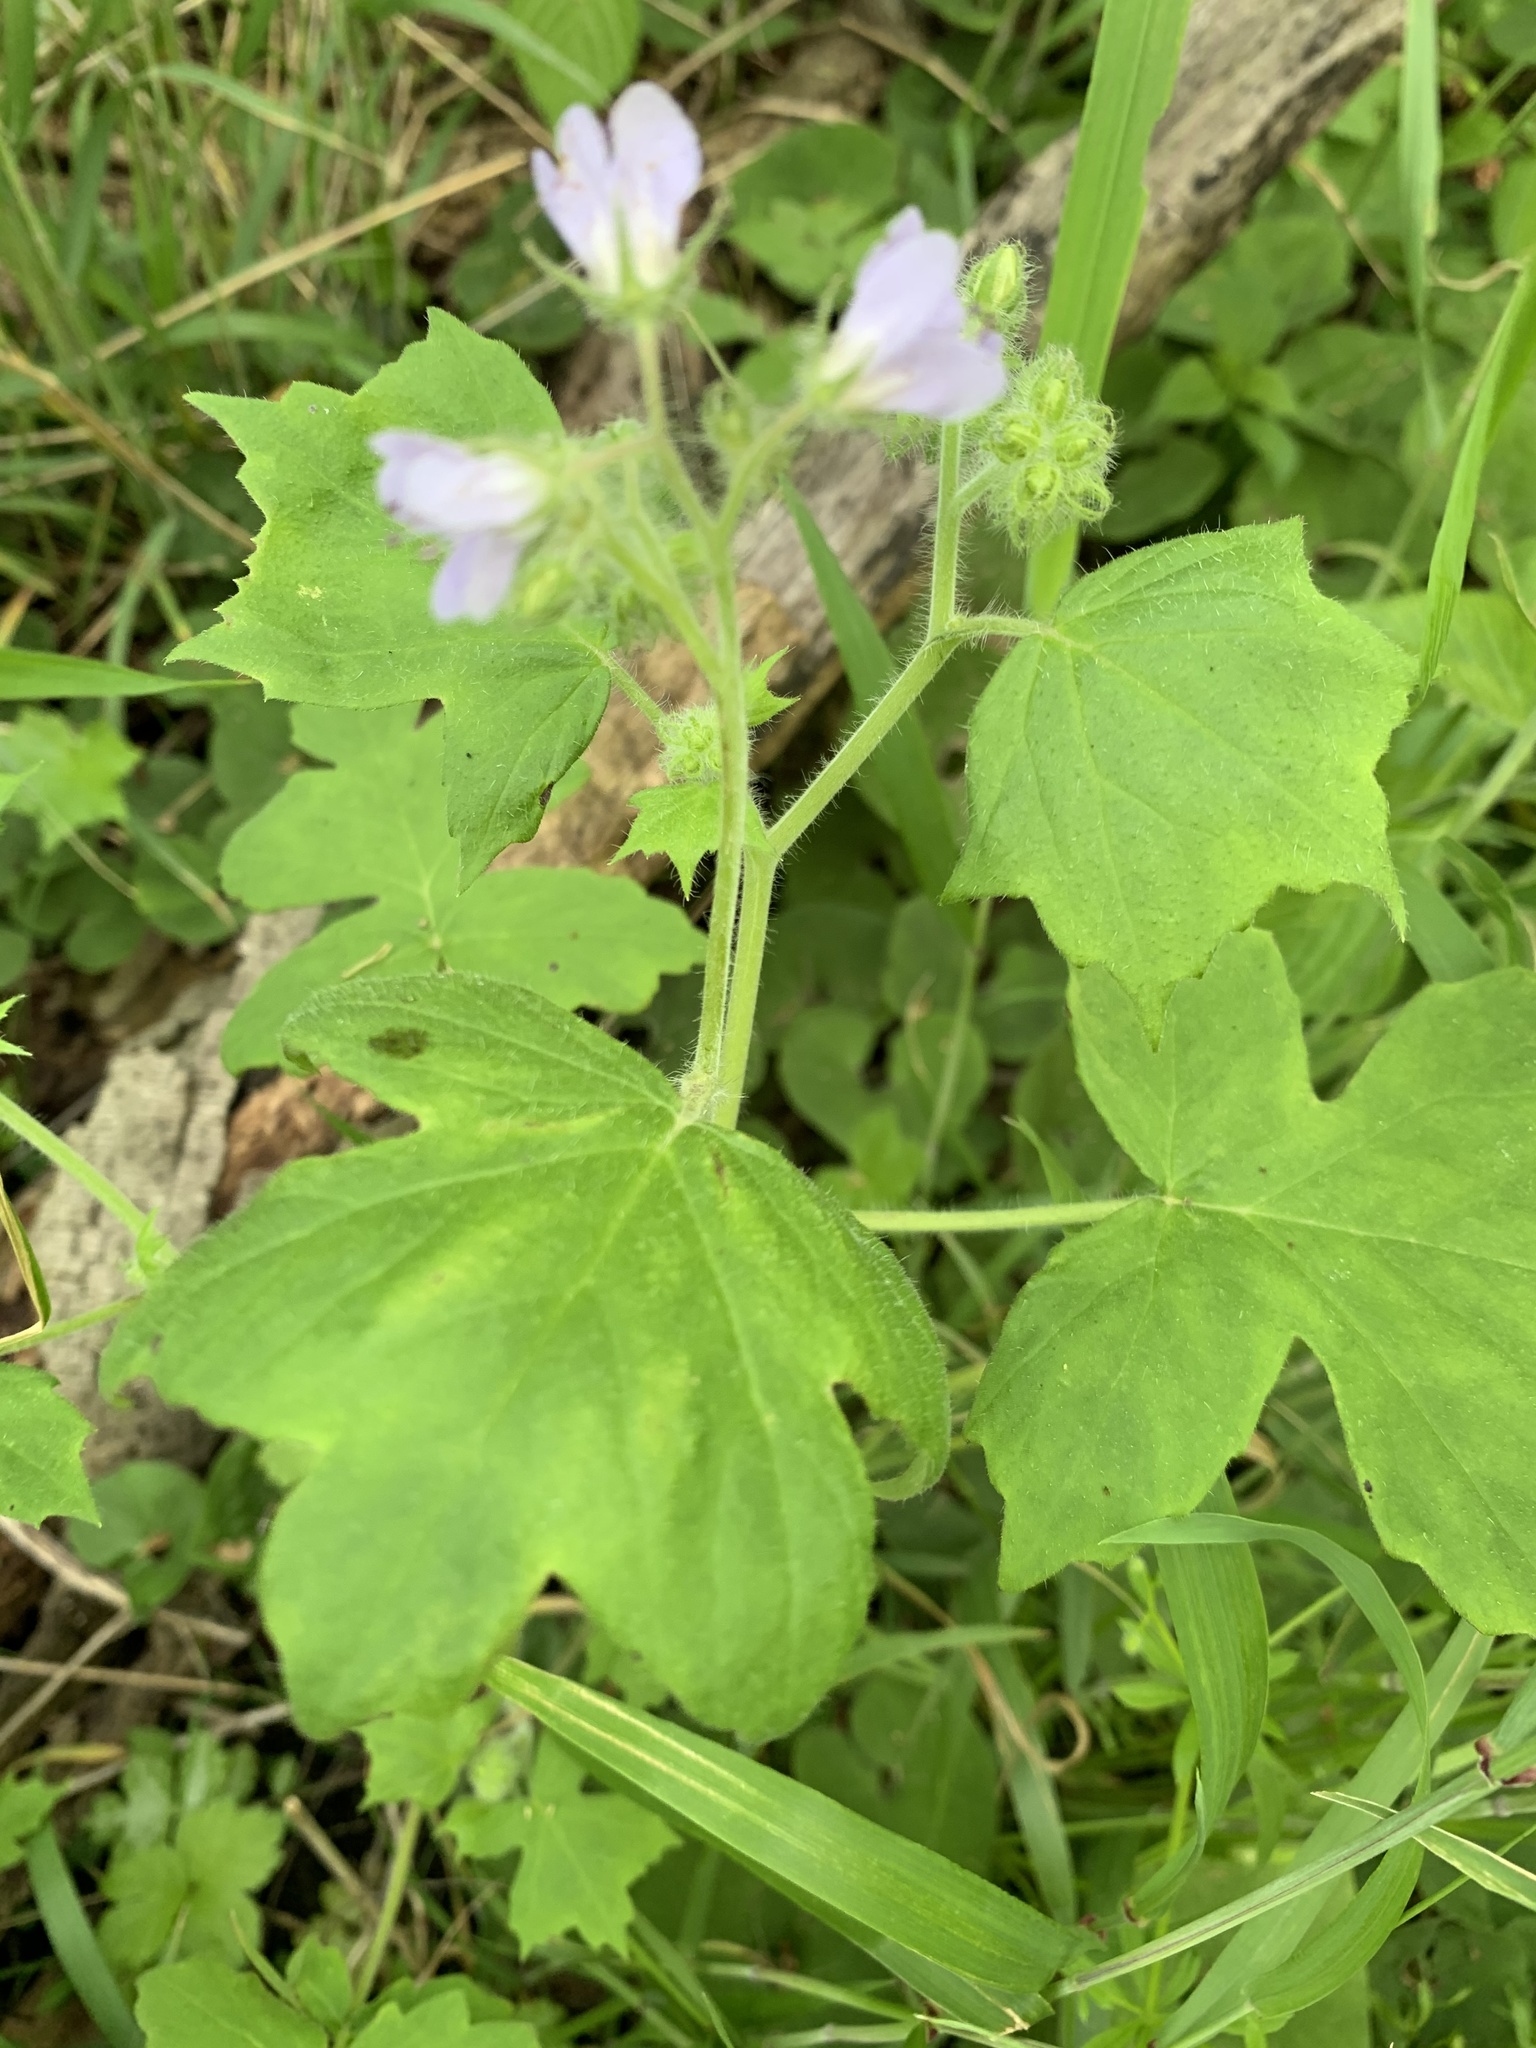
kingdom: Plantae
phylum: Tracheophyta
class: Magnoliopsida
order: Boraginales
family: Hydrophyllaceae
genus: Hydrophyllum
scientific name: Hydrophyllum appendiculatum
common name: Appendaged waterleaf
